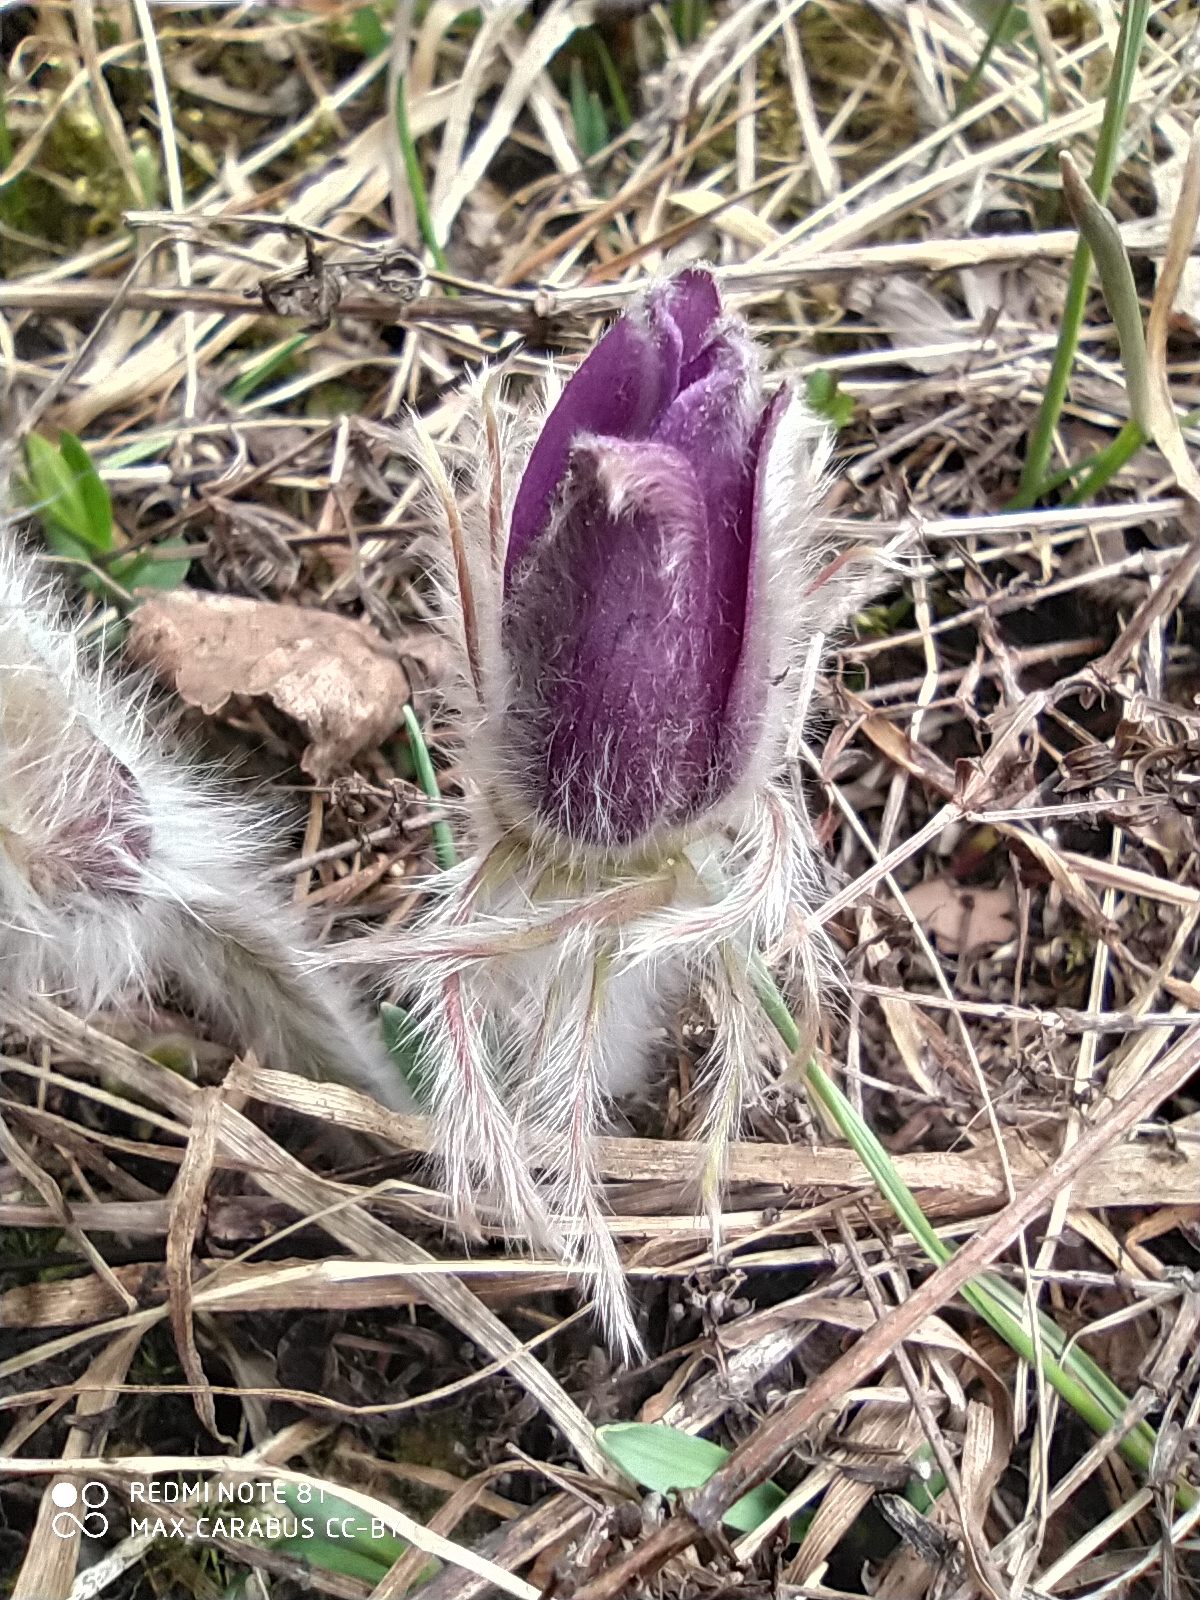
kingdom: Plantae
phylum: Tracheophyta
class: Magnoliopsida
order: Ranunculales
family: Ranunculaceae
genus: Pulsatilla
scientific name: Pulsatilla patens
